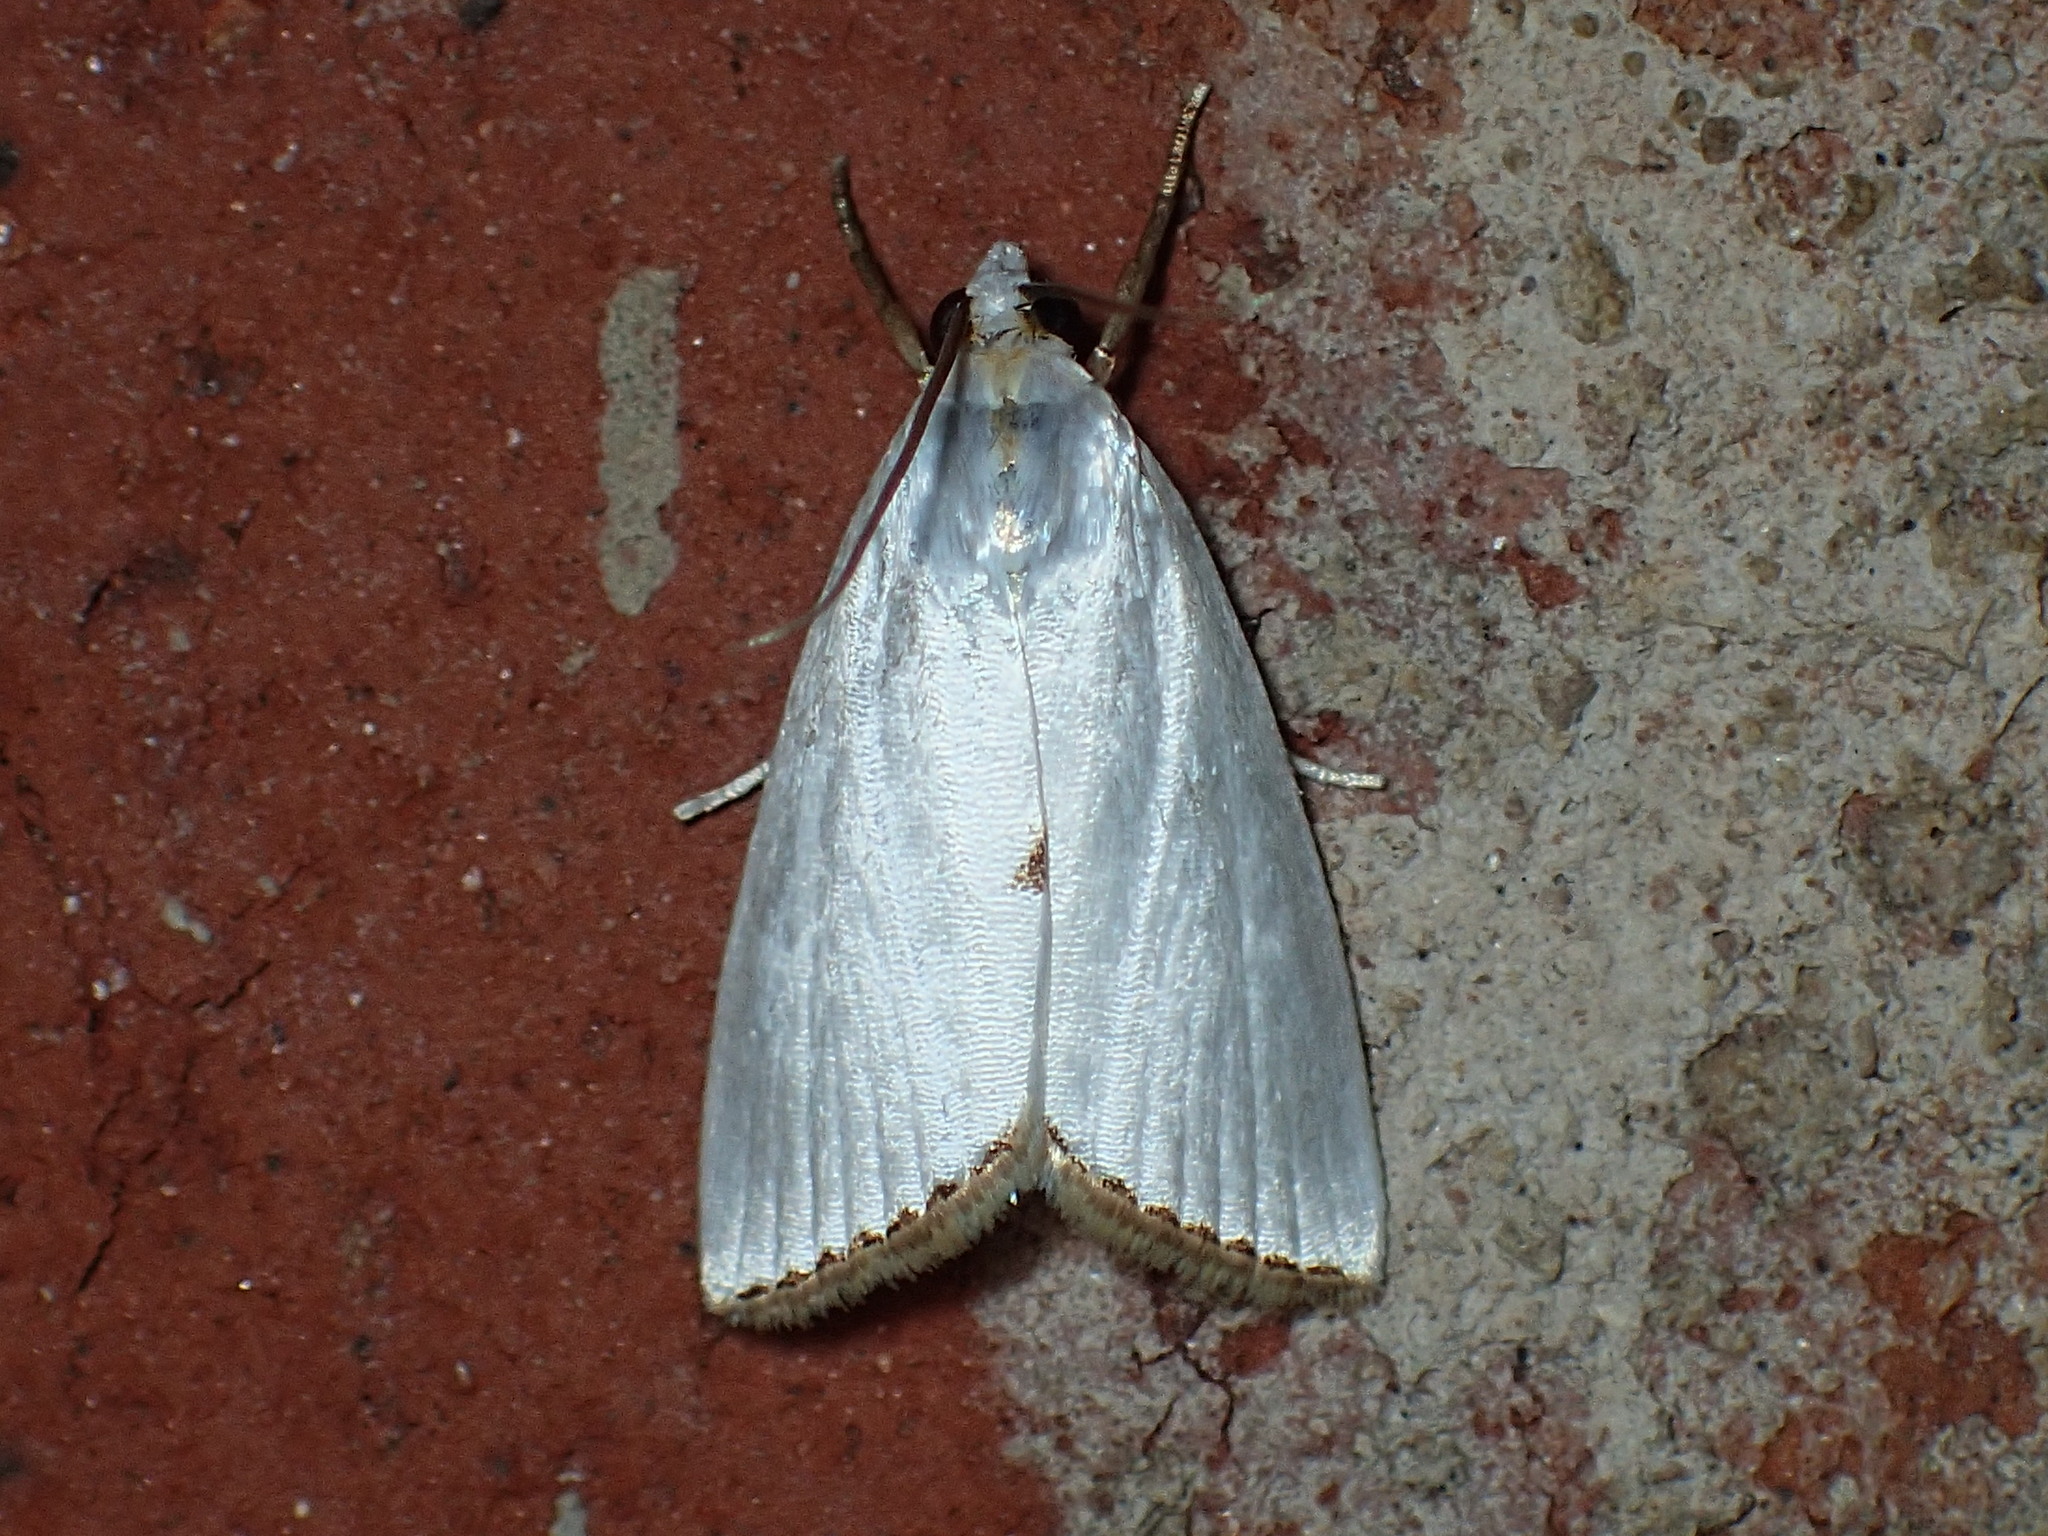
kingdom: Animalia
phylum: Arthropoda
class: Insecta
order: Lepidoptera
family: Crambidae
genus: Argyria
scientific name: Argyria nivalis
